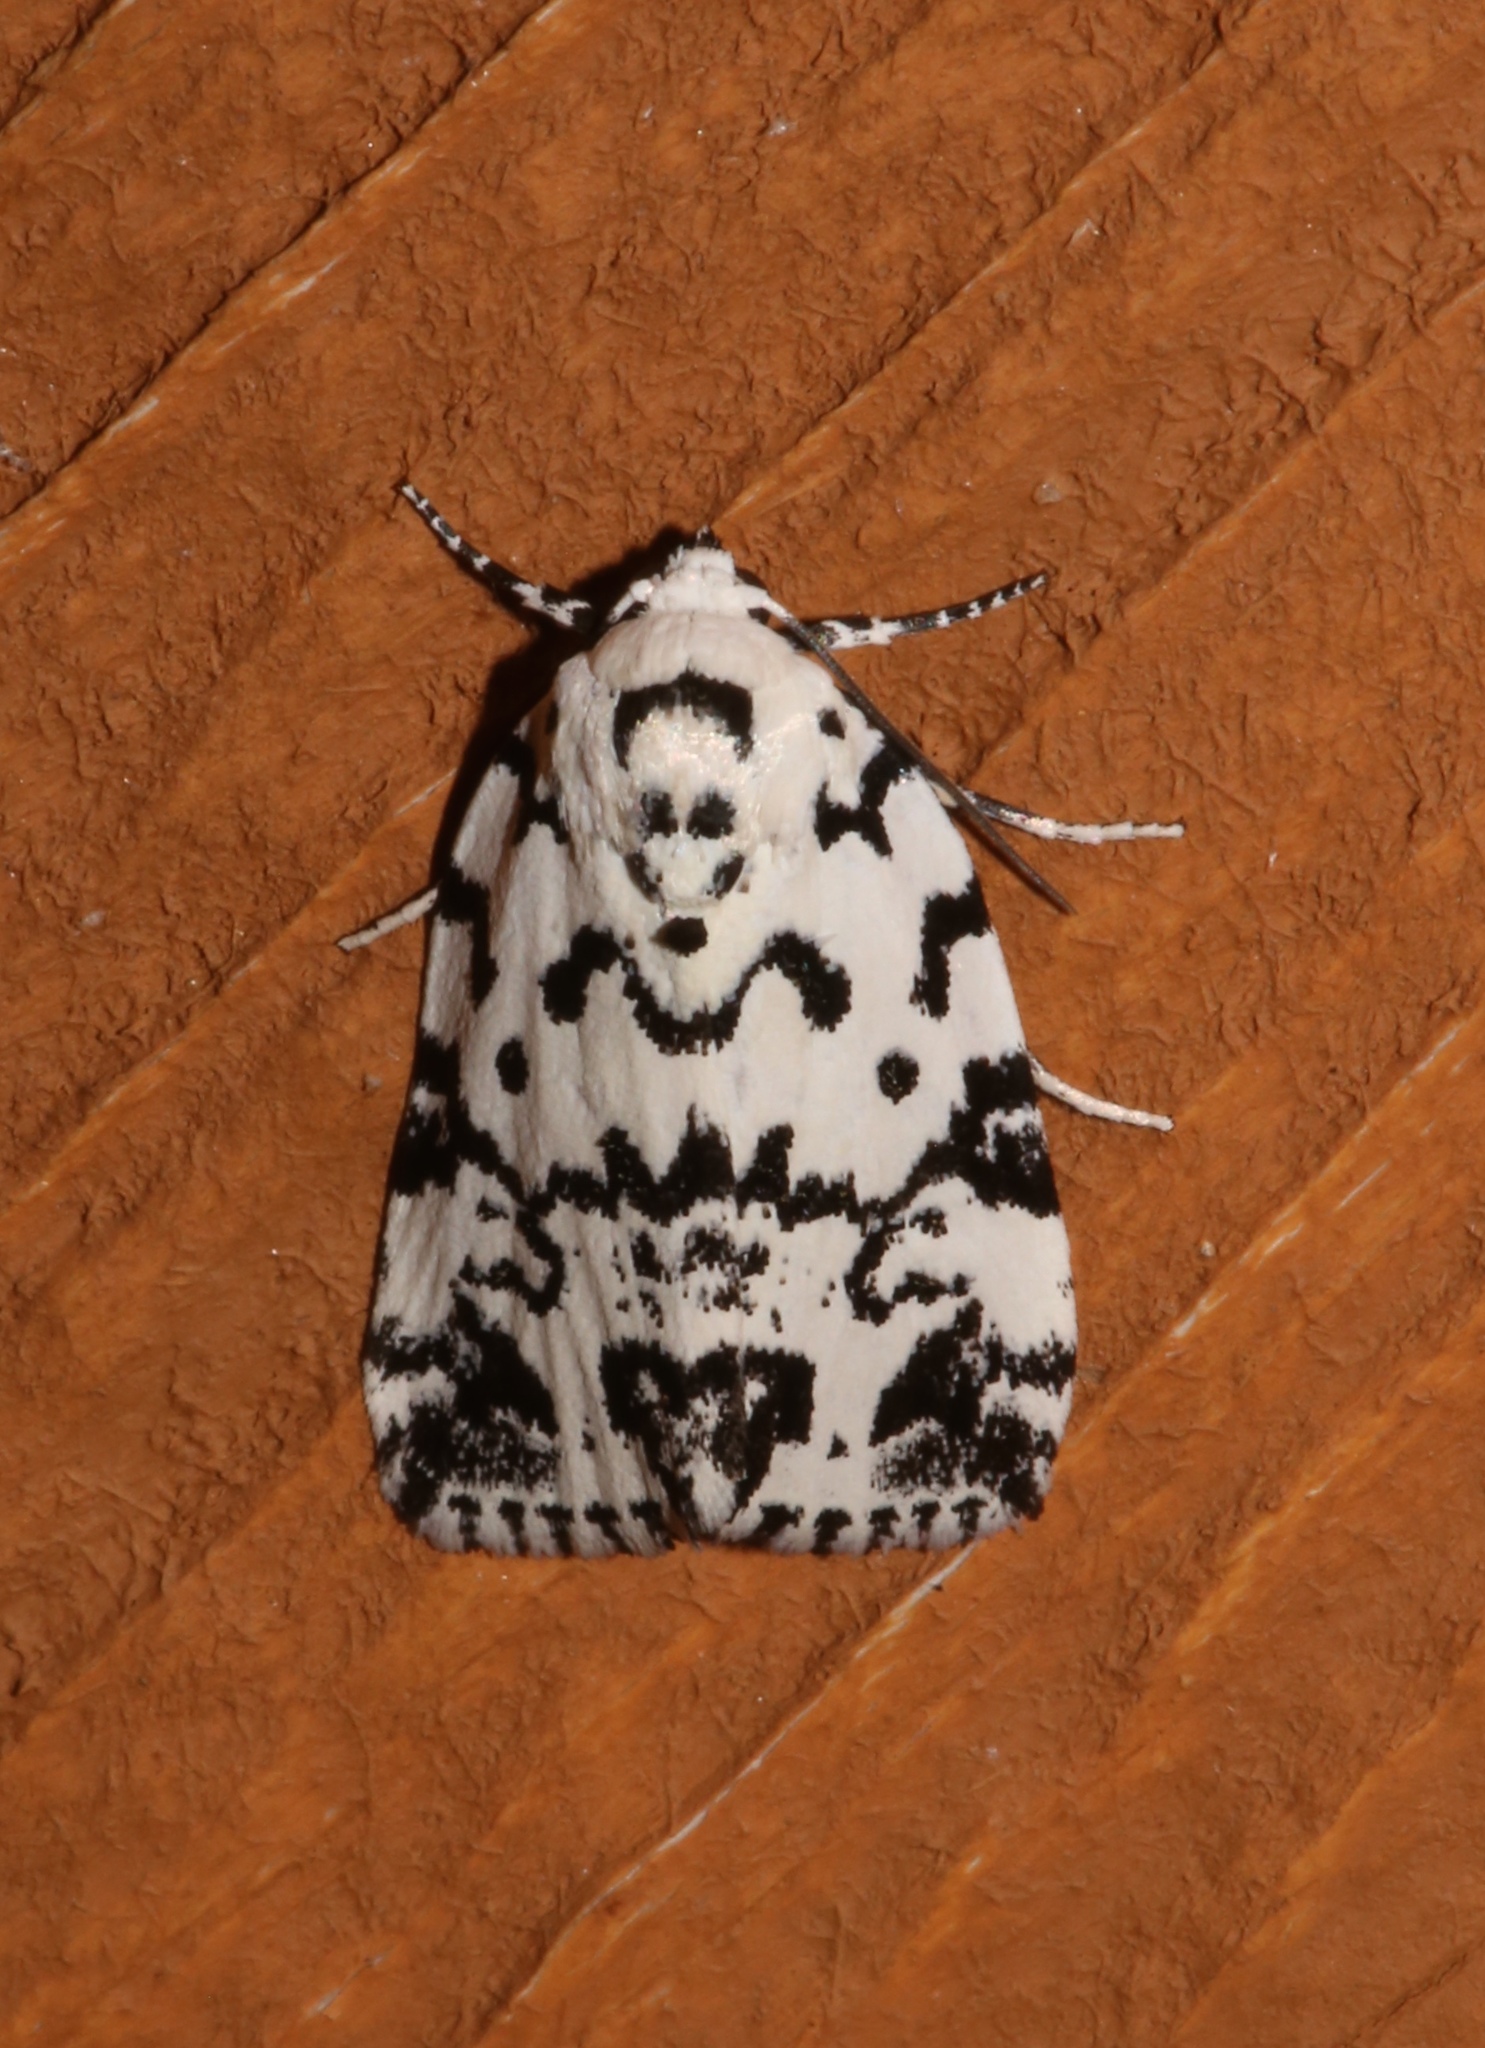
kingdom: Animalia
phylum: Arthropoda
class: Insecta
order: Lepidoptera
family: Noctuidae
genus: Polygrammate
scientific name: Polygrammate hebraeicum
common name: Hebrew moth
